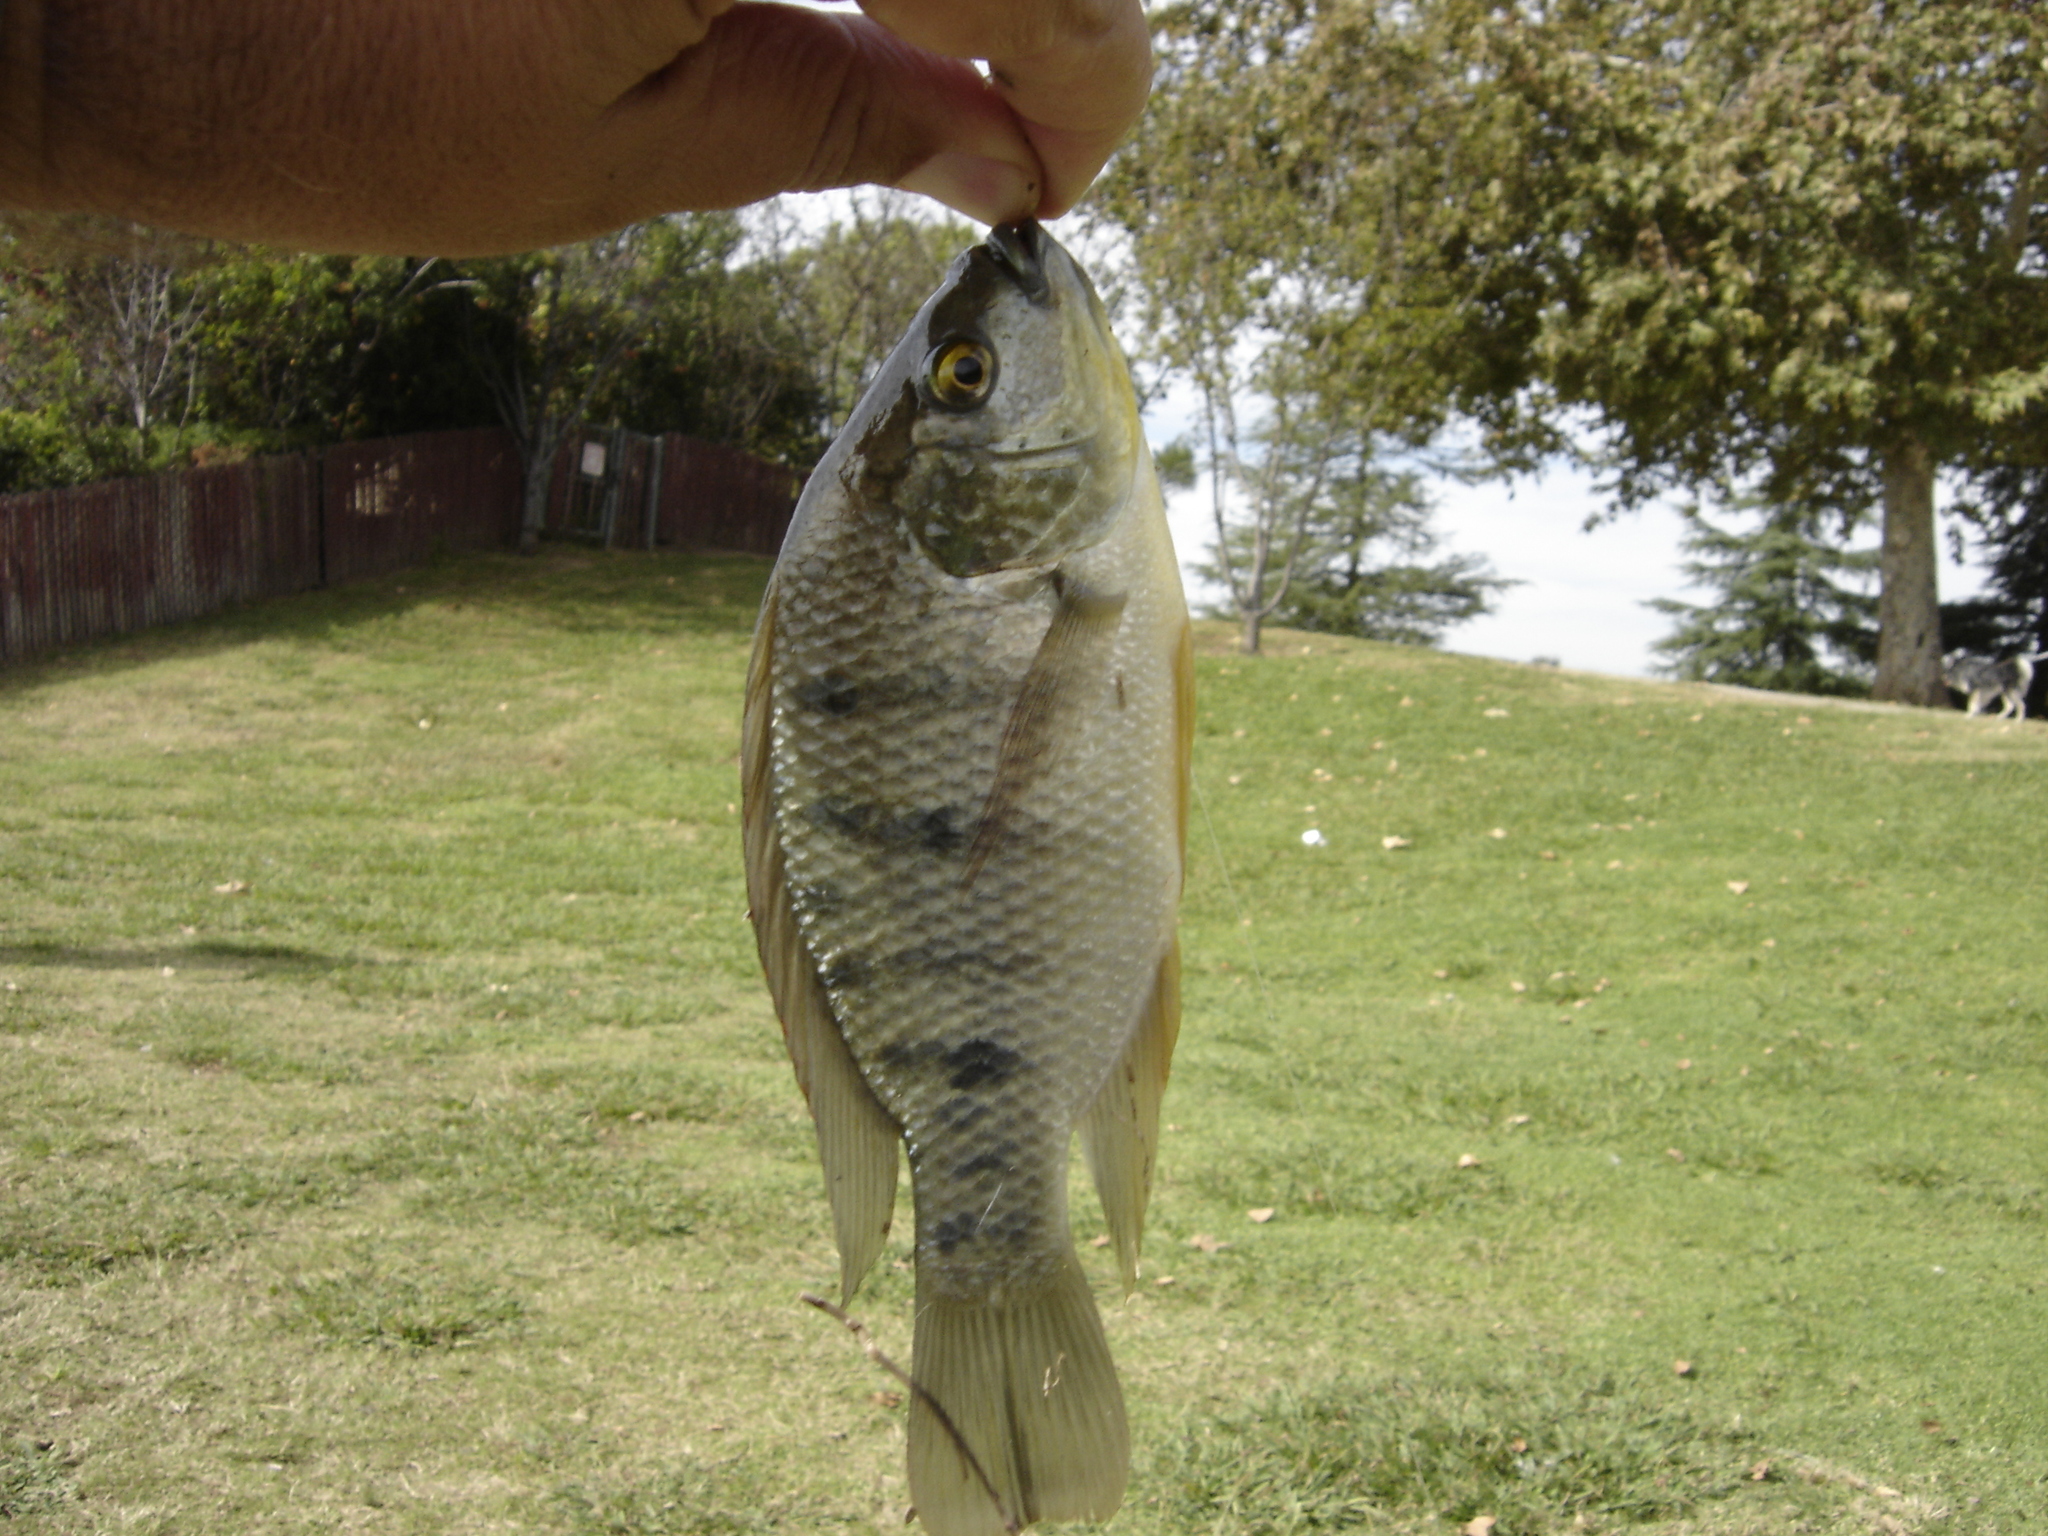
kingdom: Animalia
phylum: Chordata
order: Perciformes
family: Cichlidae
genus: Oreochromis
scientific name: Oreochromis mossambicus
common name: Mozambique tilapia
